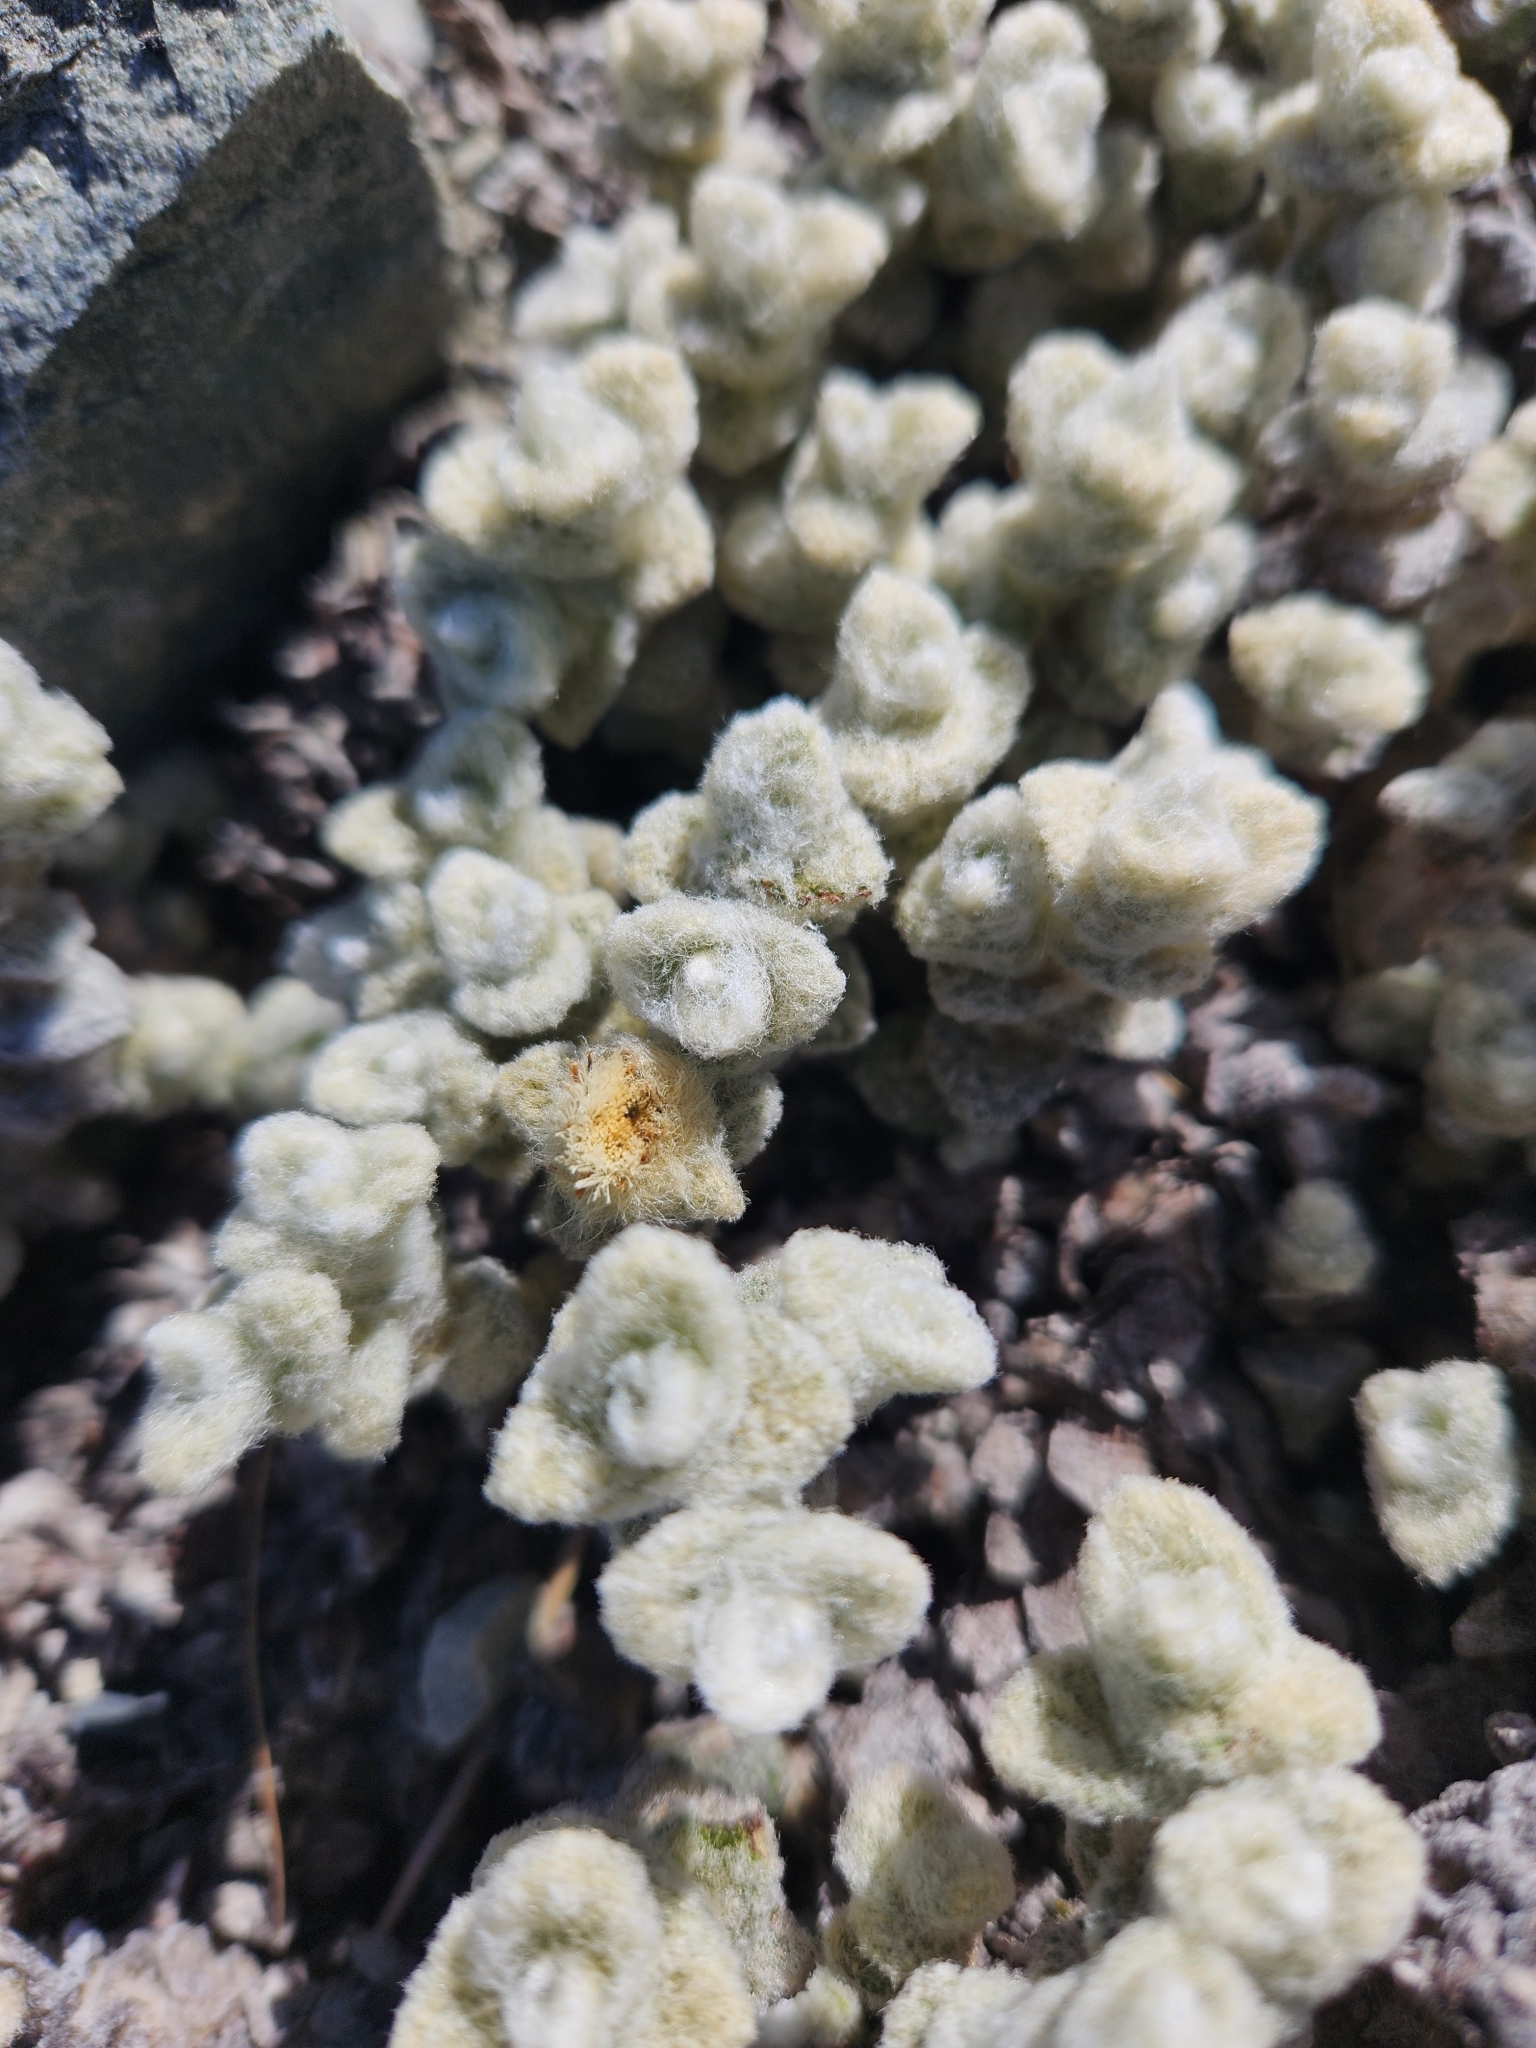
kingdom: Plantae
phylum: Tracheophyta
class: Magnoliopsida
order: Asterales
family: Asteraceae
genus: Haastia
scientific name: Haastia recurva
